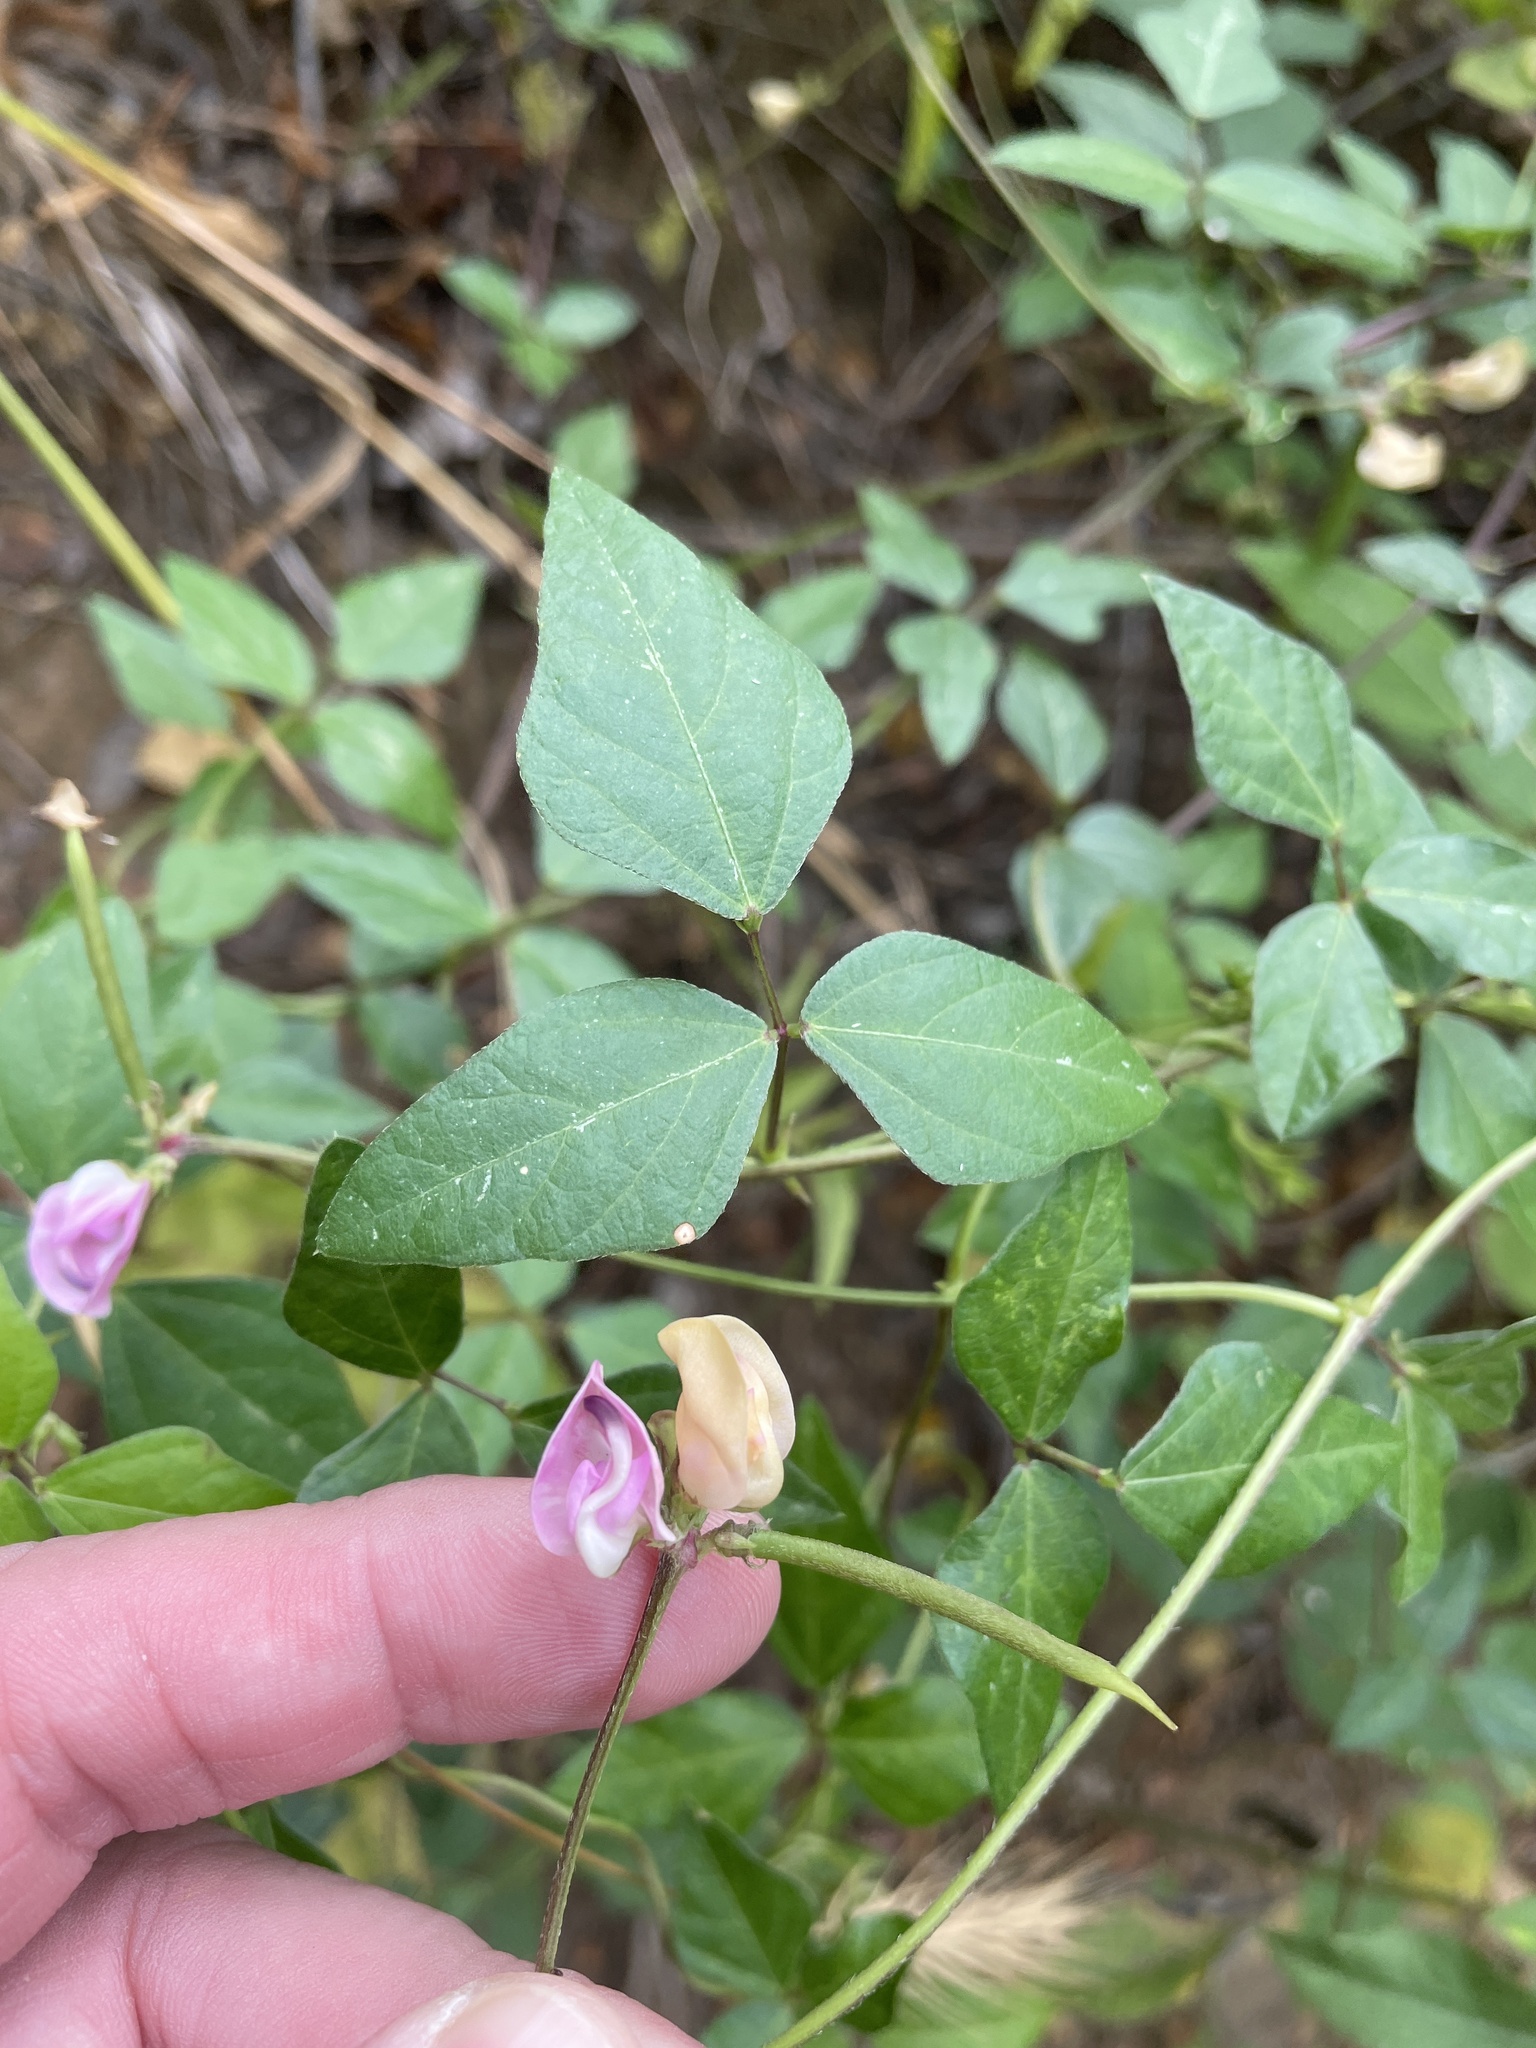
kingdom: Plantae
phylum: Tracheophyta
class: Magnoliopsida
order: Fabales
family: Fabaceae
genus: Strophostyles
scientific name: Strophostyles helvola
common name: Trailing wild bean
